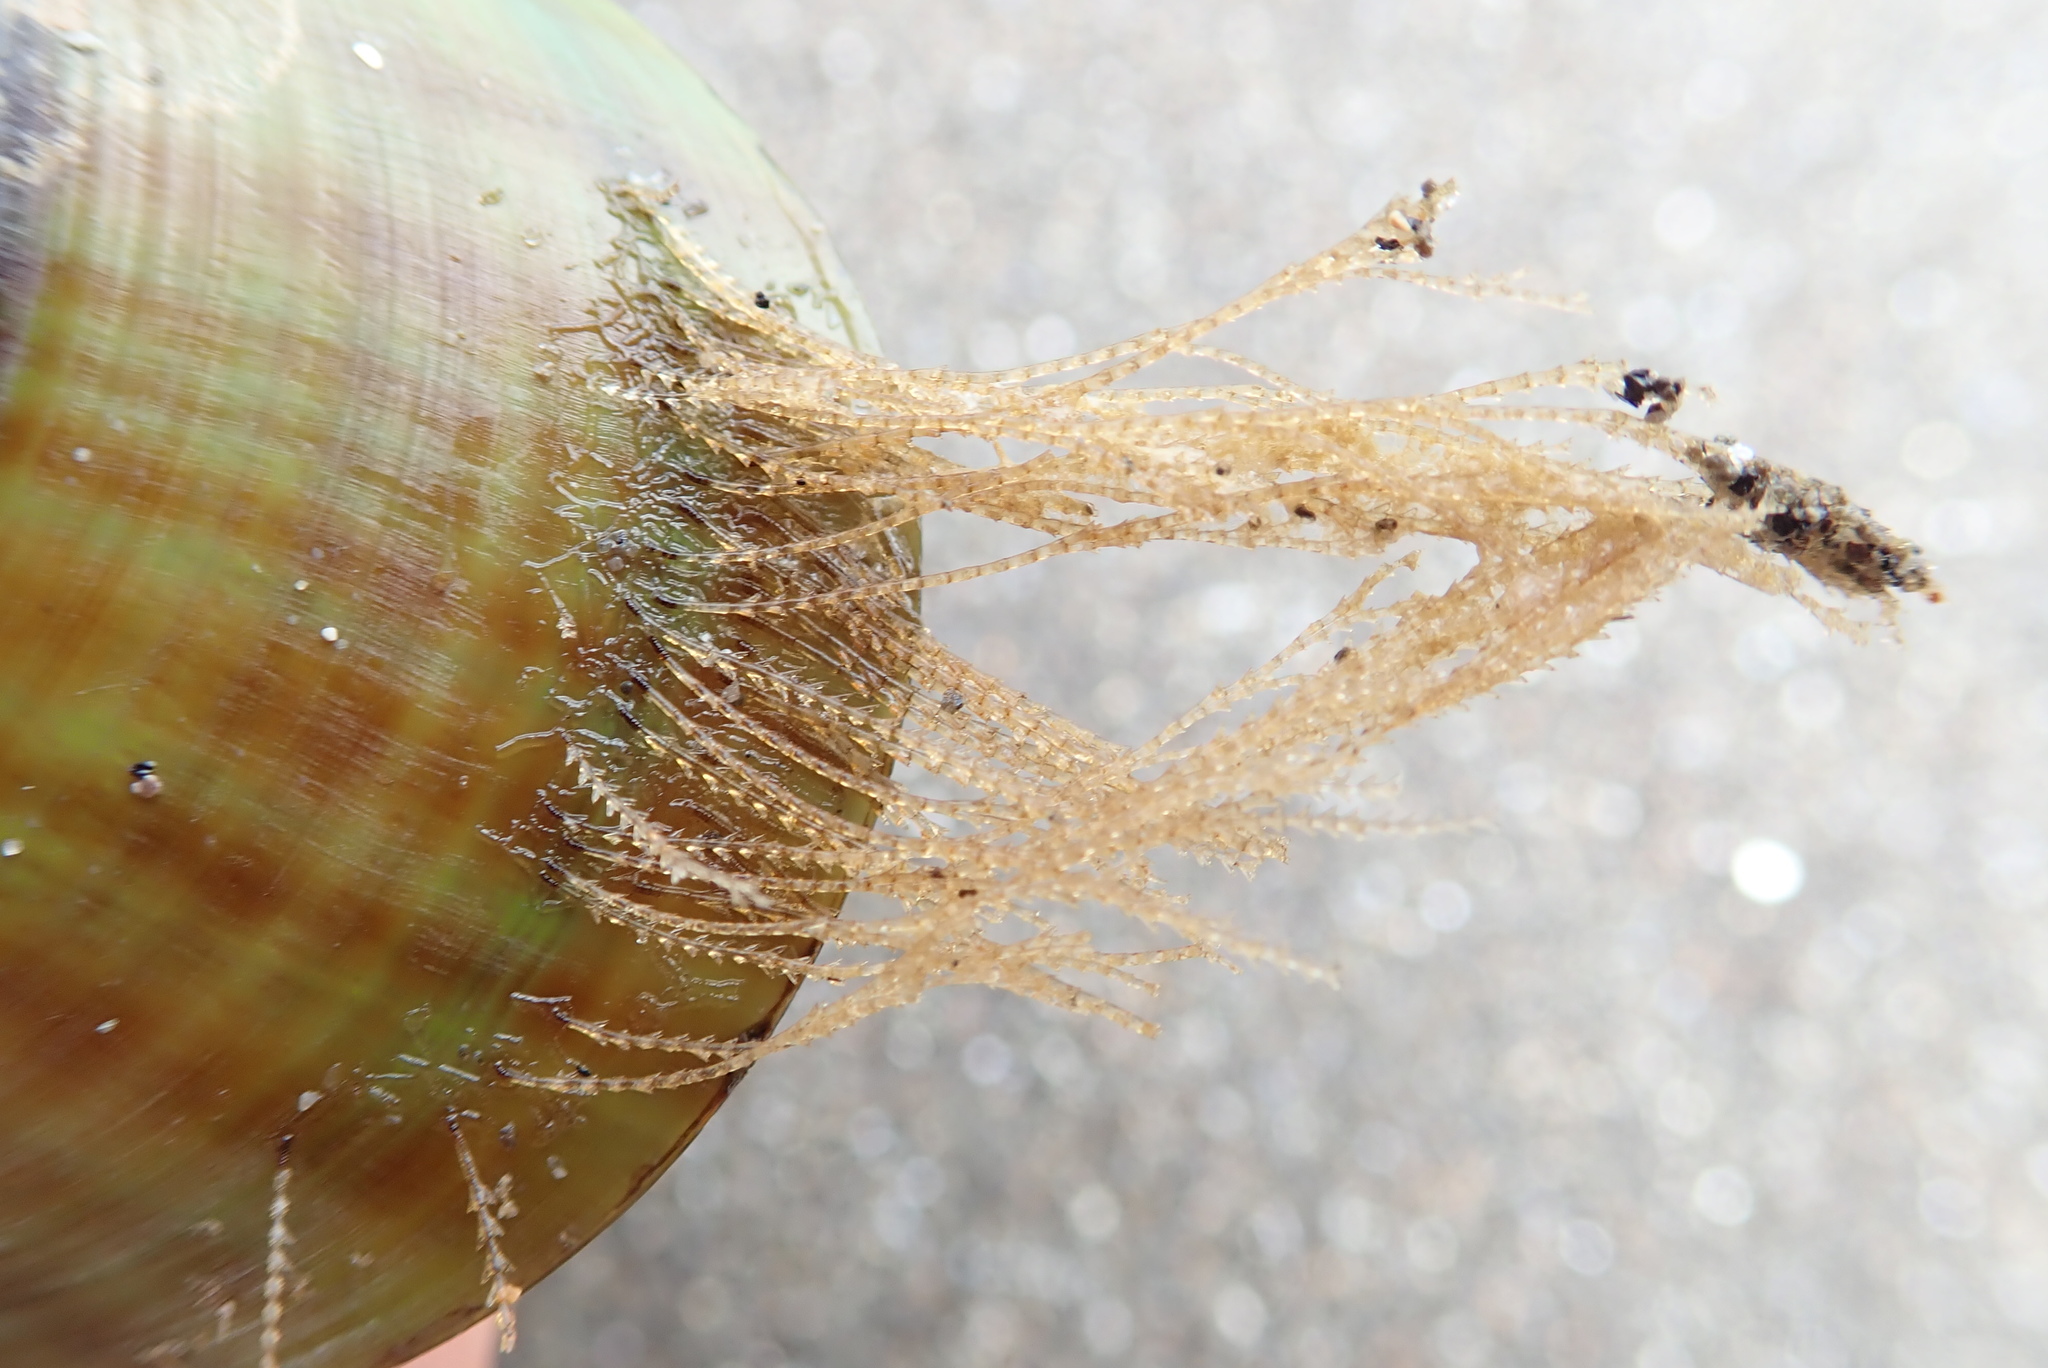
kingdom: Animalia
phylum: Cnidaria
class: Hydrozoa
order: Leptothecata
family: Sertulariidae
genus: Amphisbetia
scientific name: Amphisbetia bispinosa
